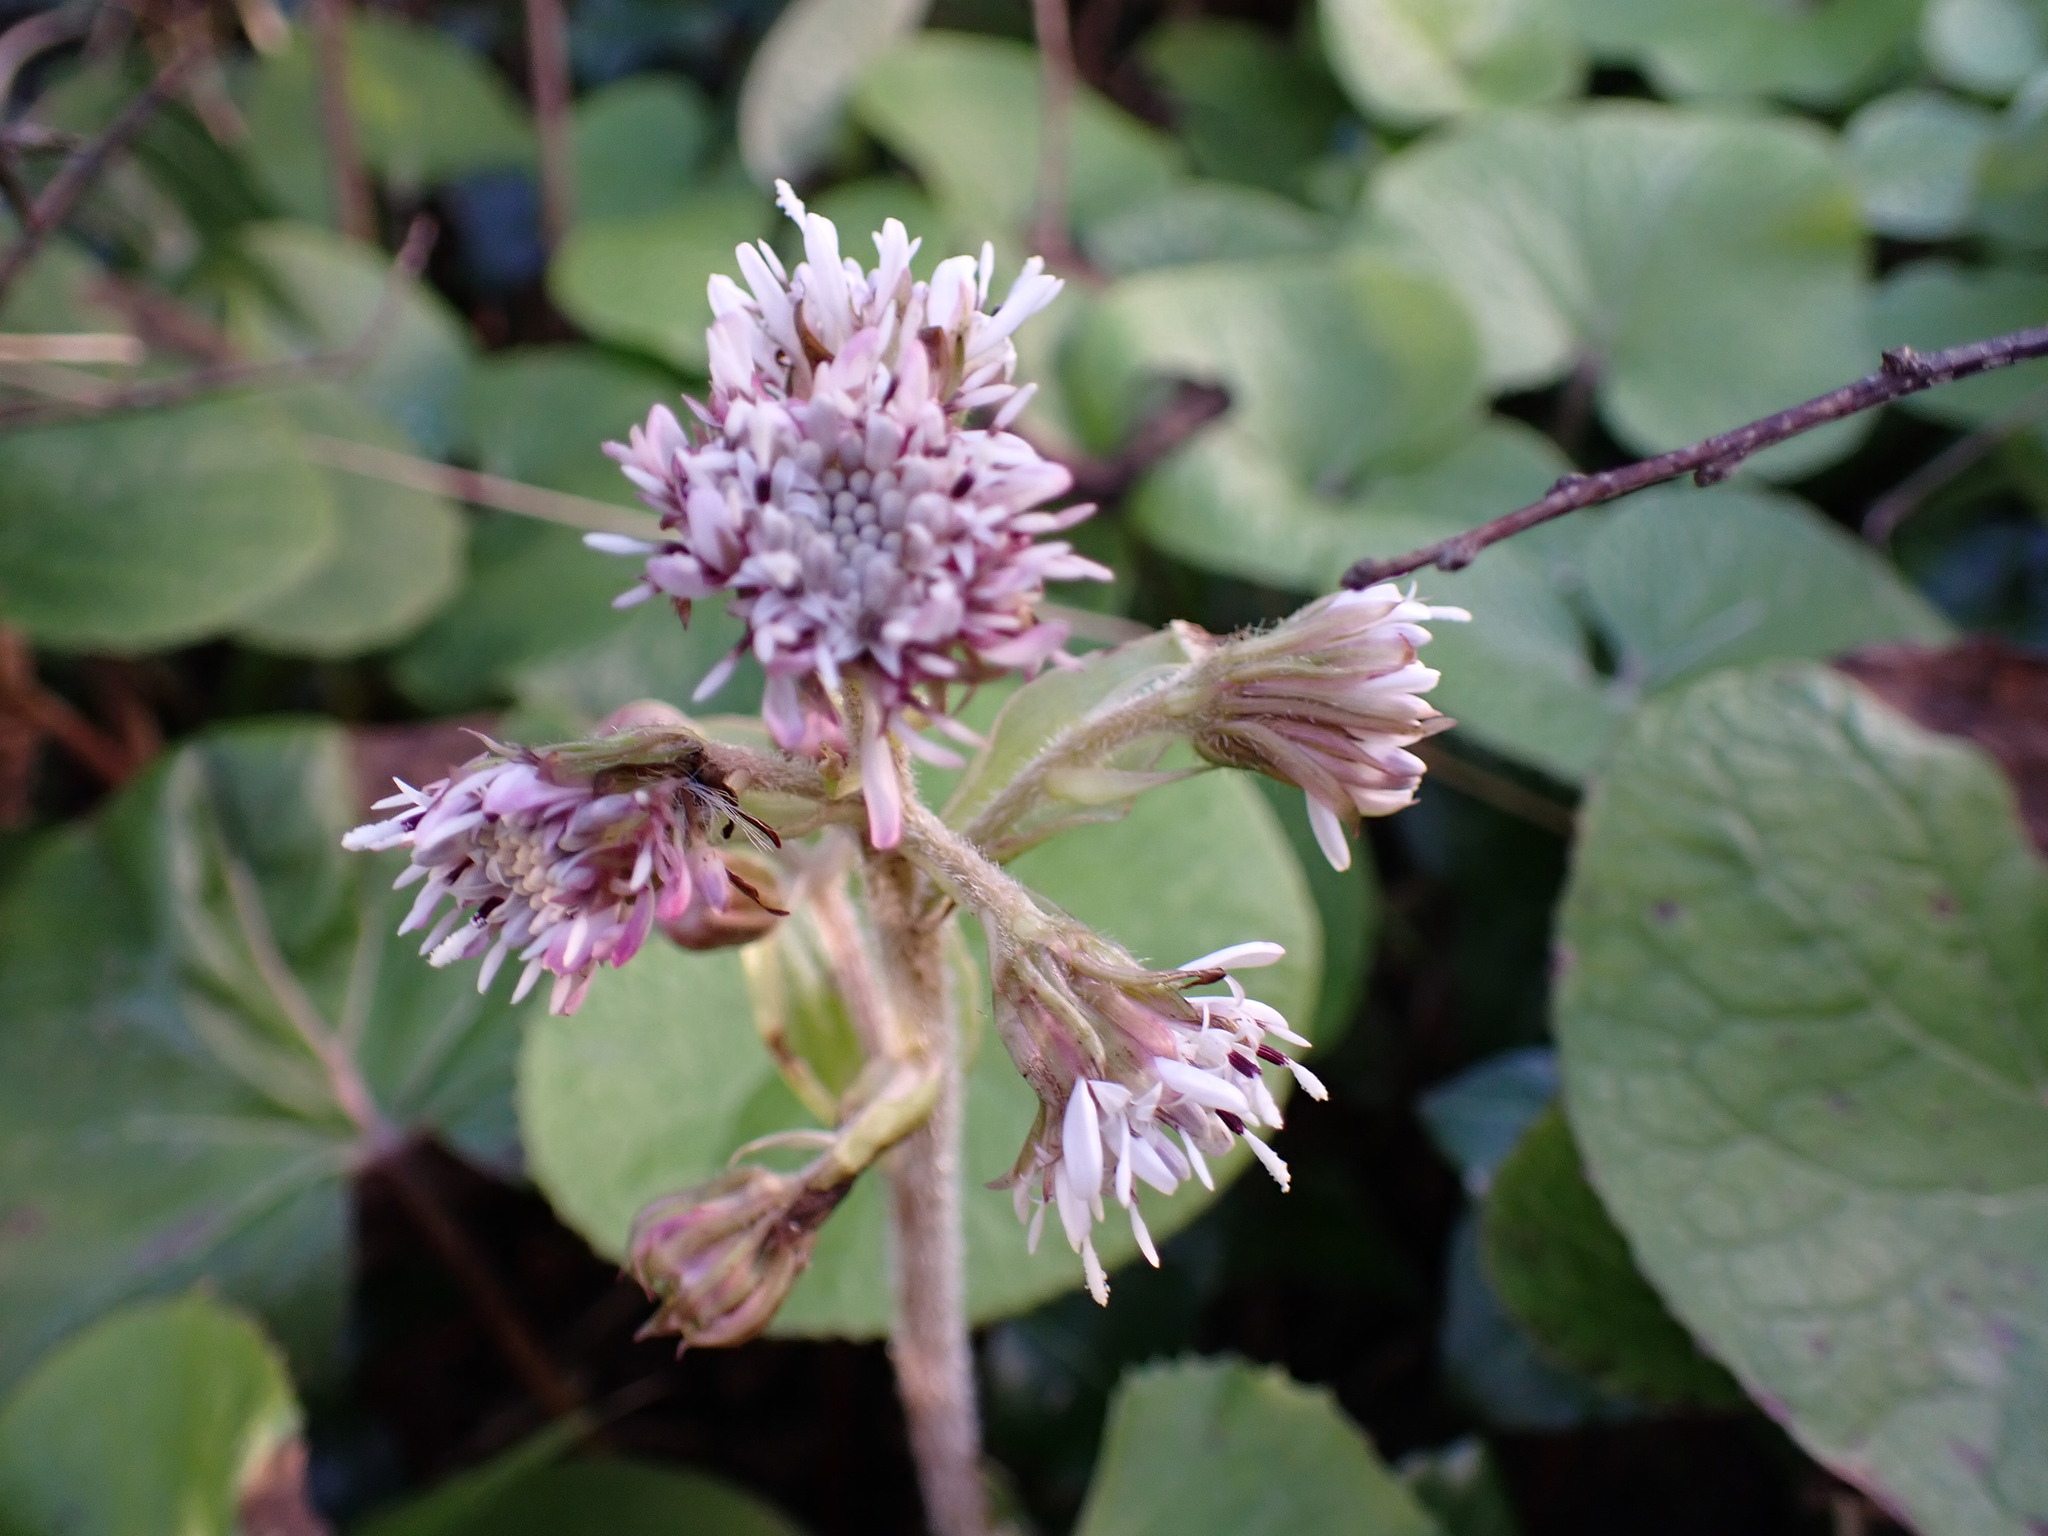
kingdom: Plantae
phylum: Tracheophyta
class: Magnoliopsida
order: Asterales
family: Asteraceae
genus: Petasites
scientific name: Petasites pyrenaicus
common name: Winter heliotrope
